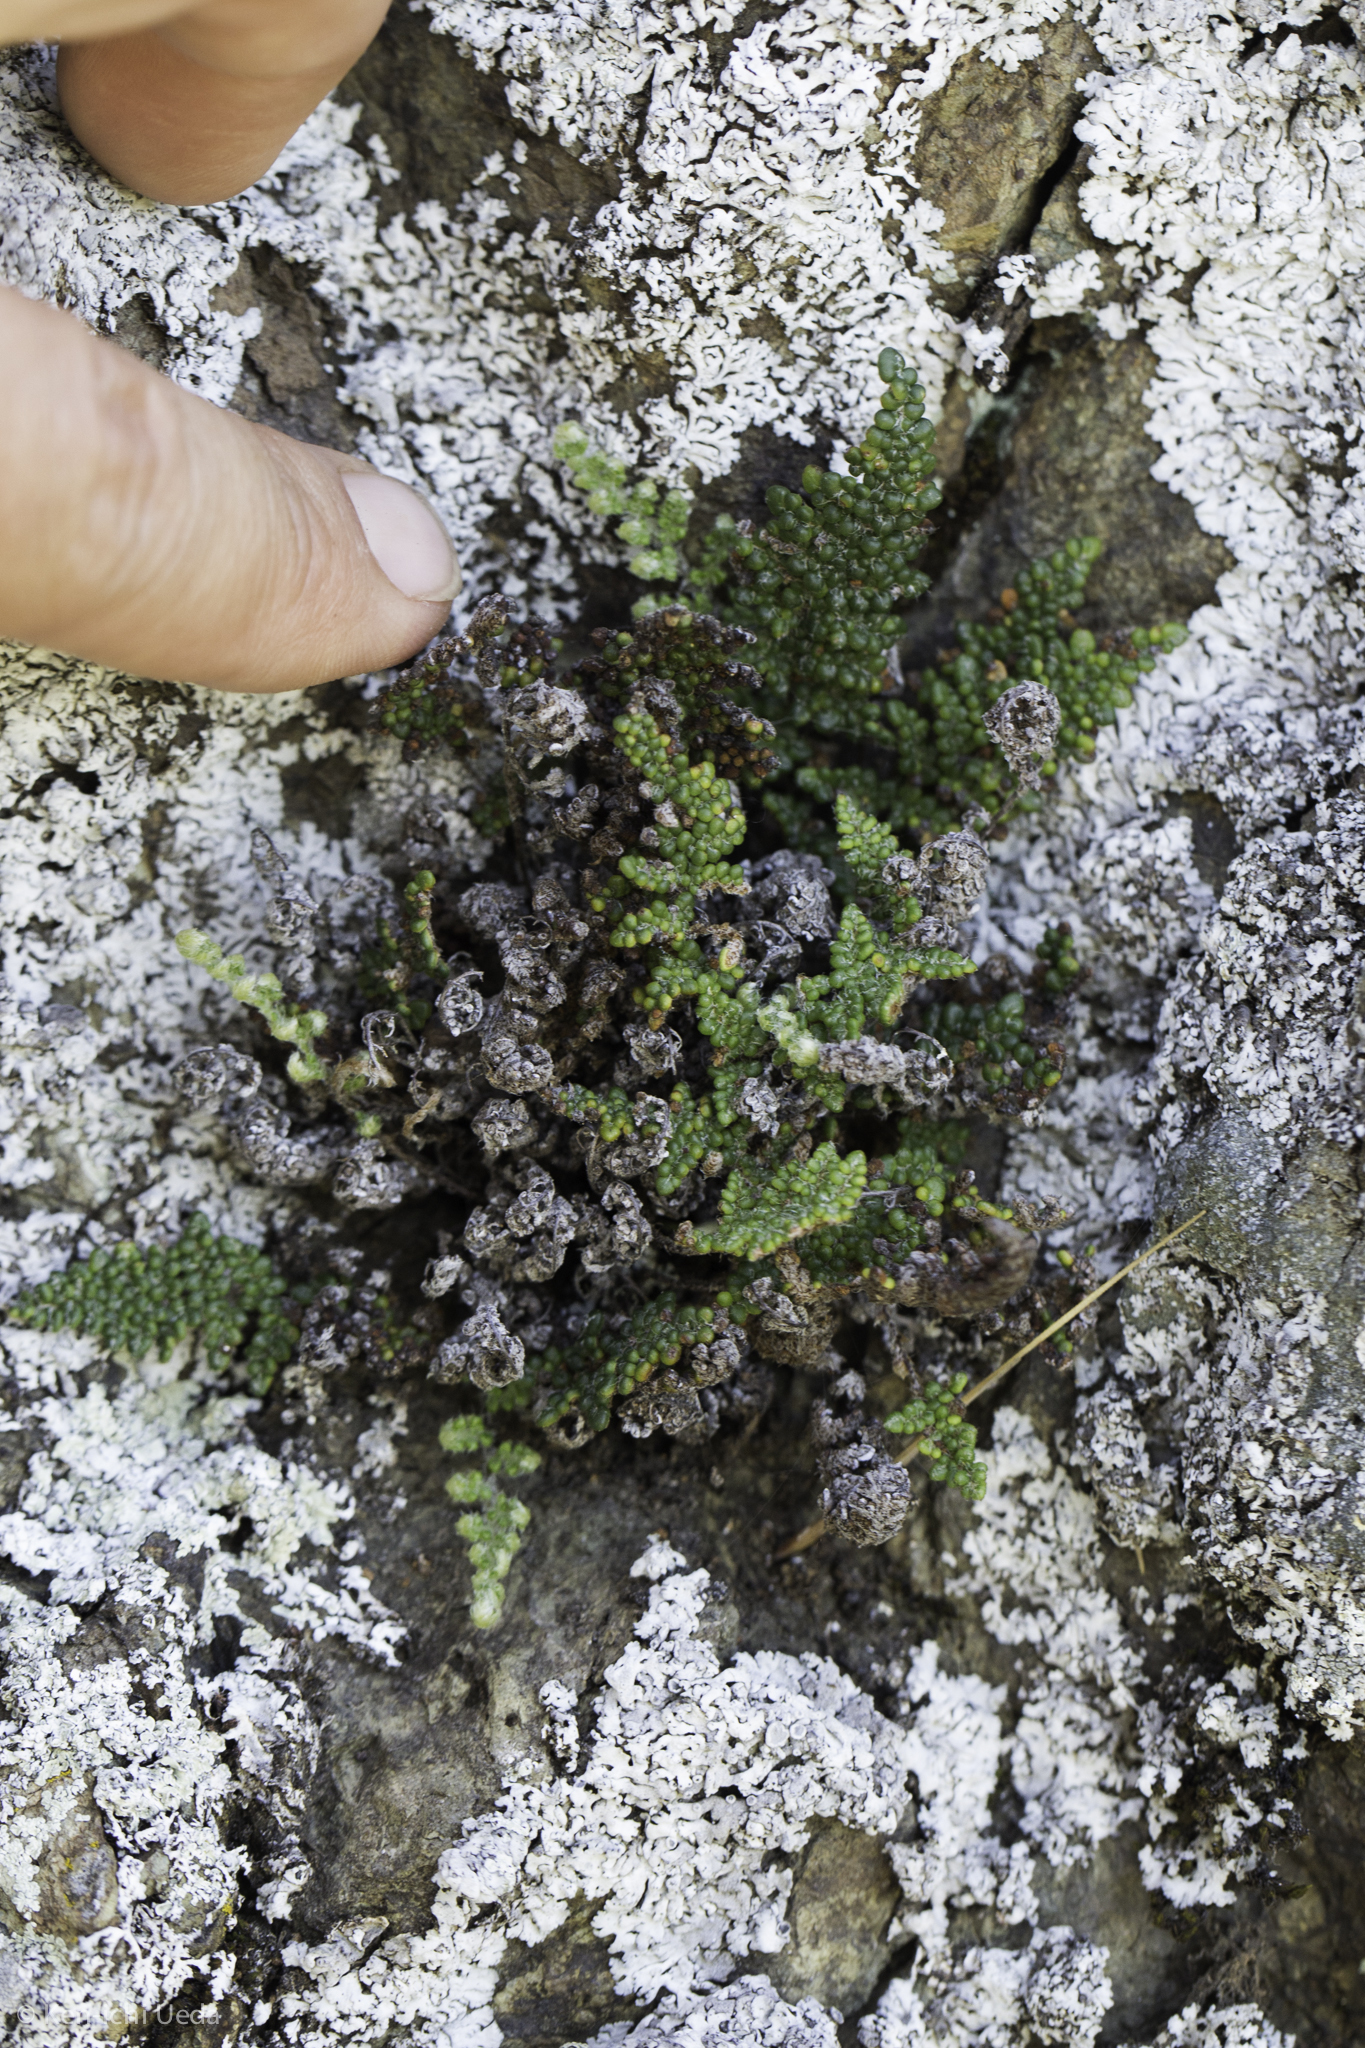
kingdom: Plantae
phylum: Tracheophyta
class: Polypodiopsida
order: Polypodiales
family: Pteridaceae
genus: Myriopteris
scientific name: Myriopteris intertexta
